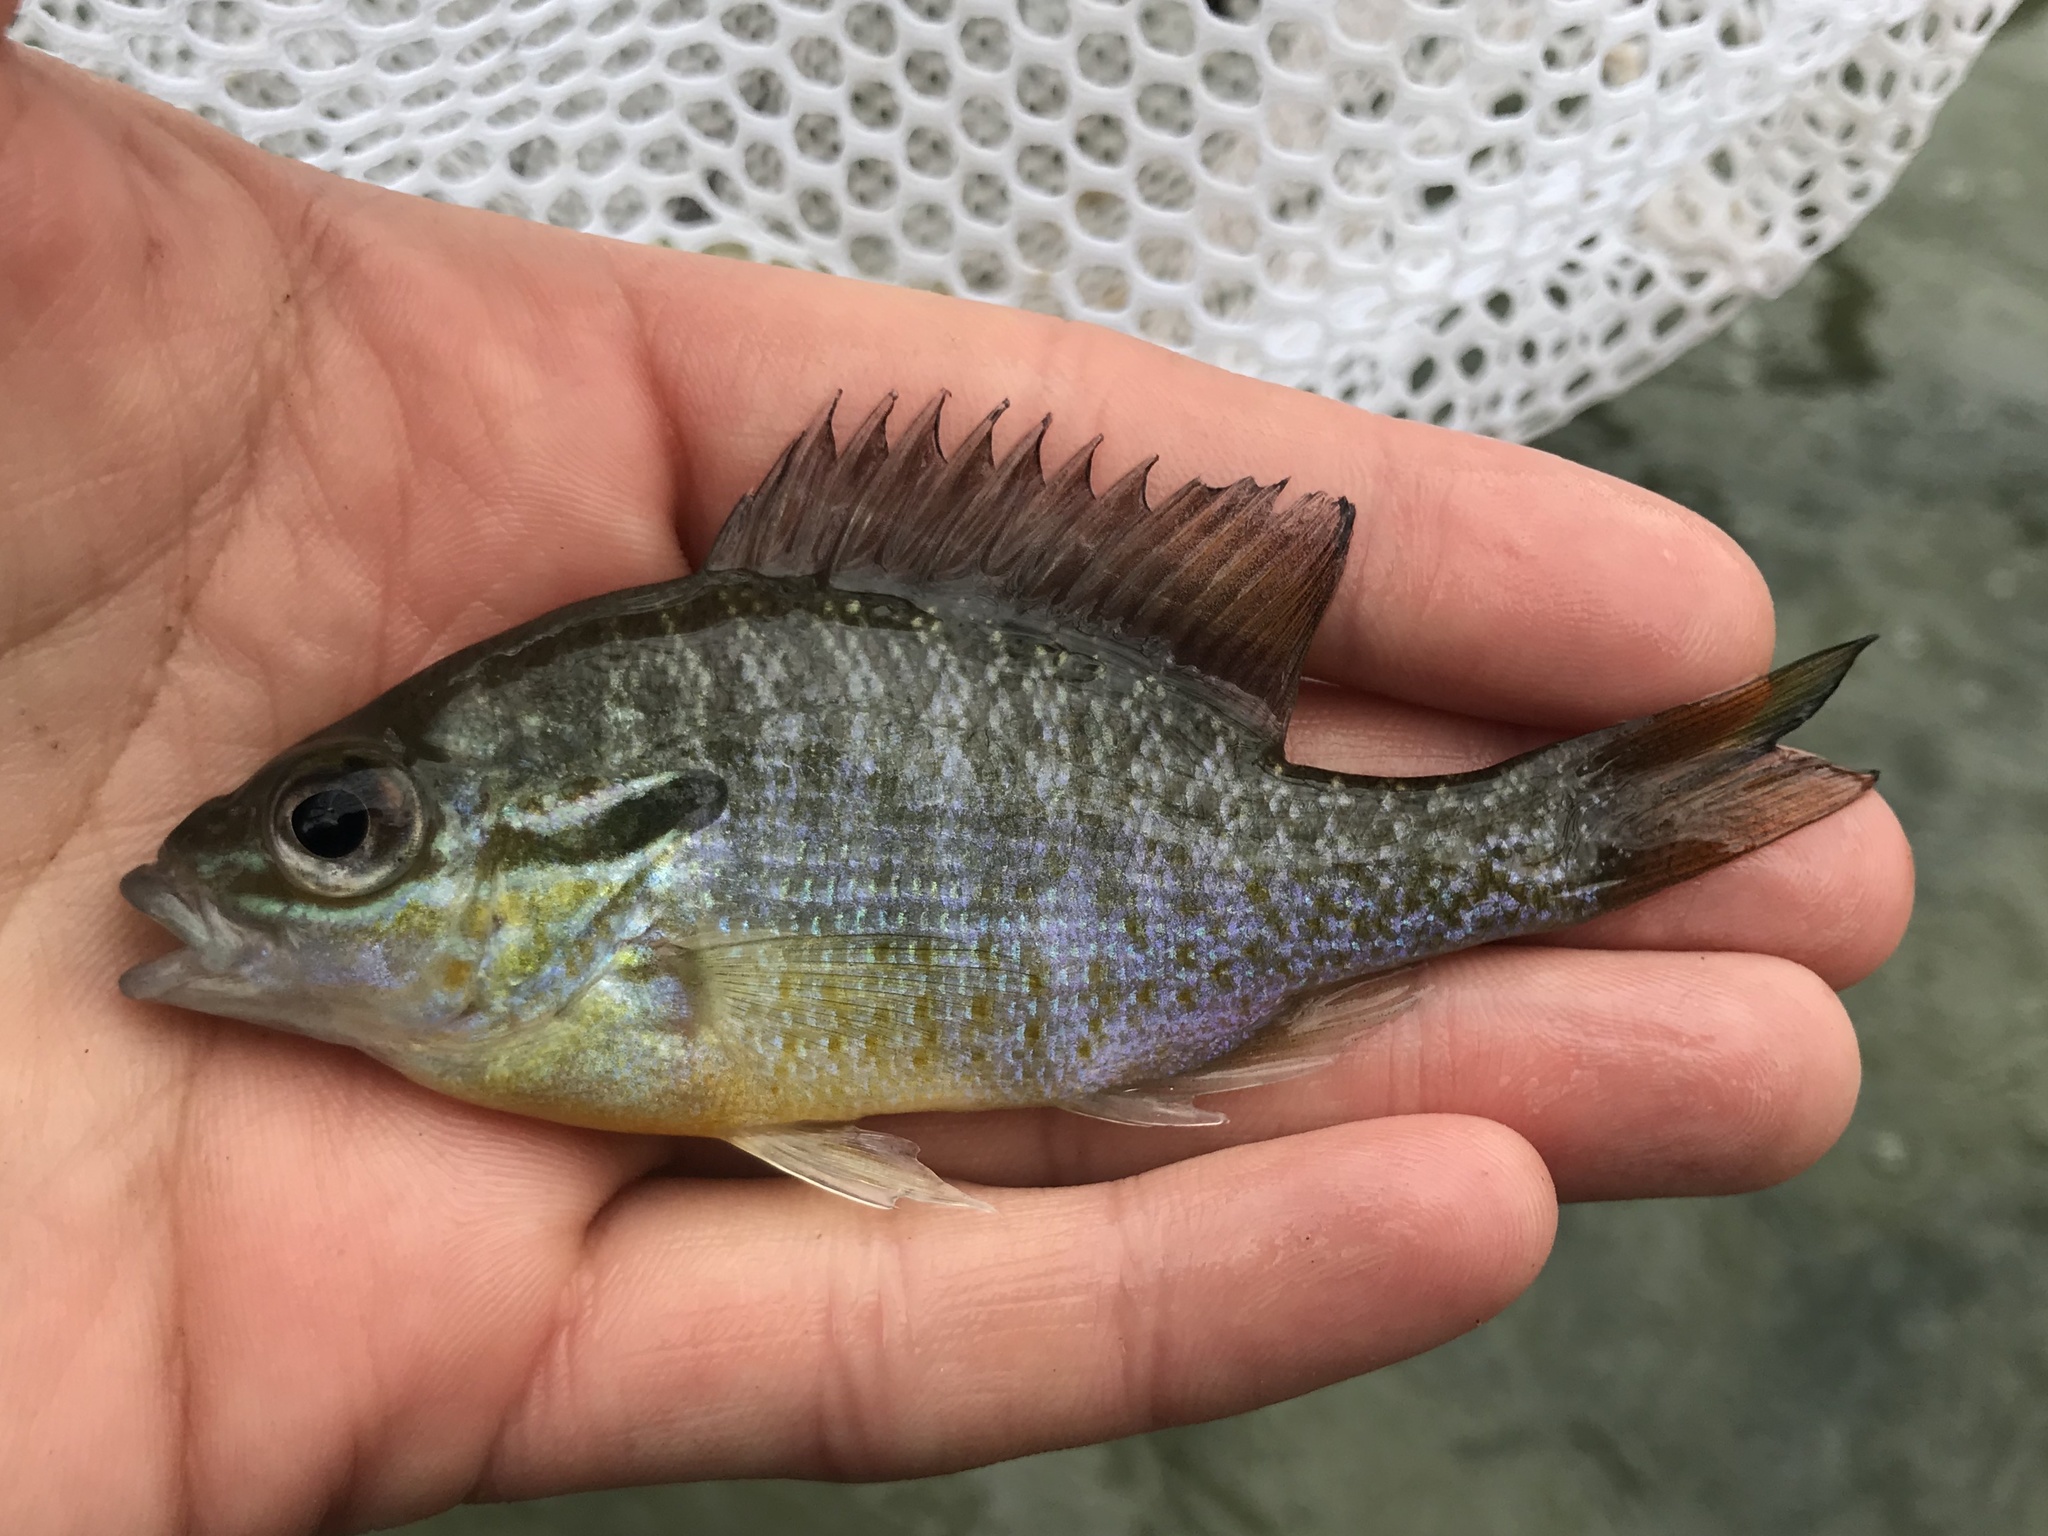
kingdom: Animalia
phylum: Chordata
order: Perciformes
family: Centrarchidae
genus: Lepomis
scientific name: Lepomis auritus
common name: Redbreast sunfish
